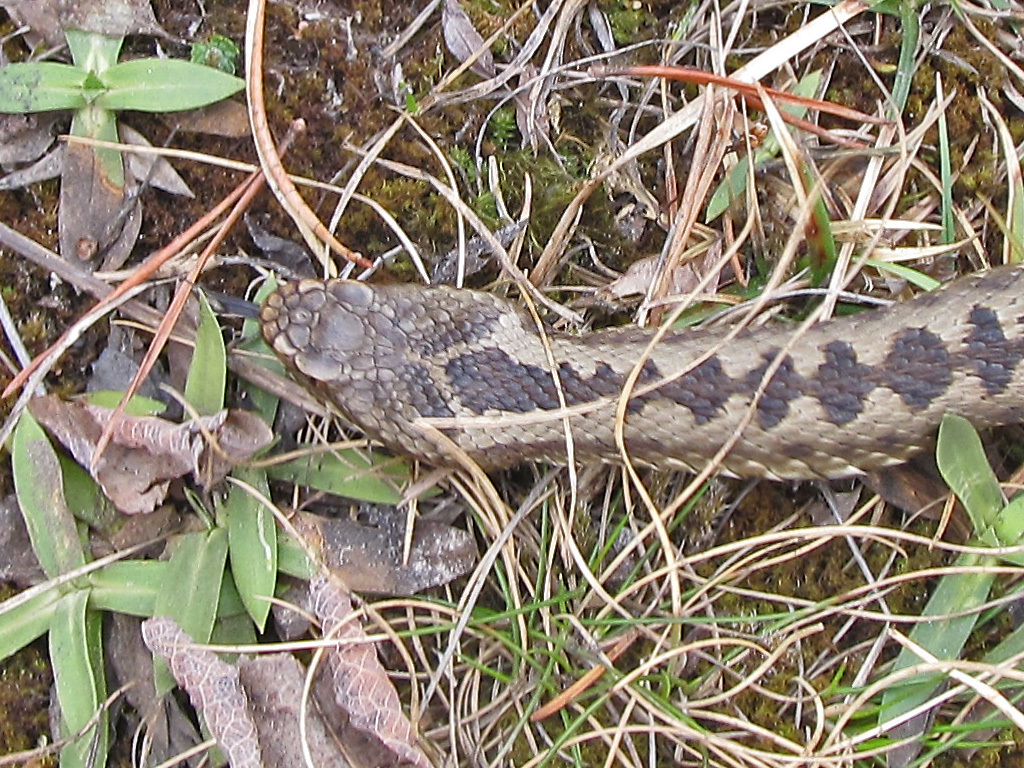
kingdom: Animalia
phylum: Chordata
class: Squamata
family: Viperidae
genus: Vipera
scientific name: Vipera berus
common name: Adder
